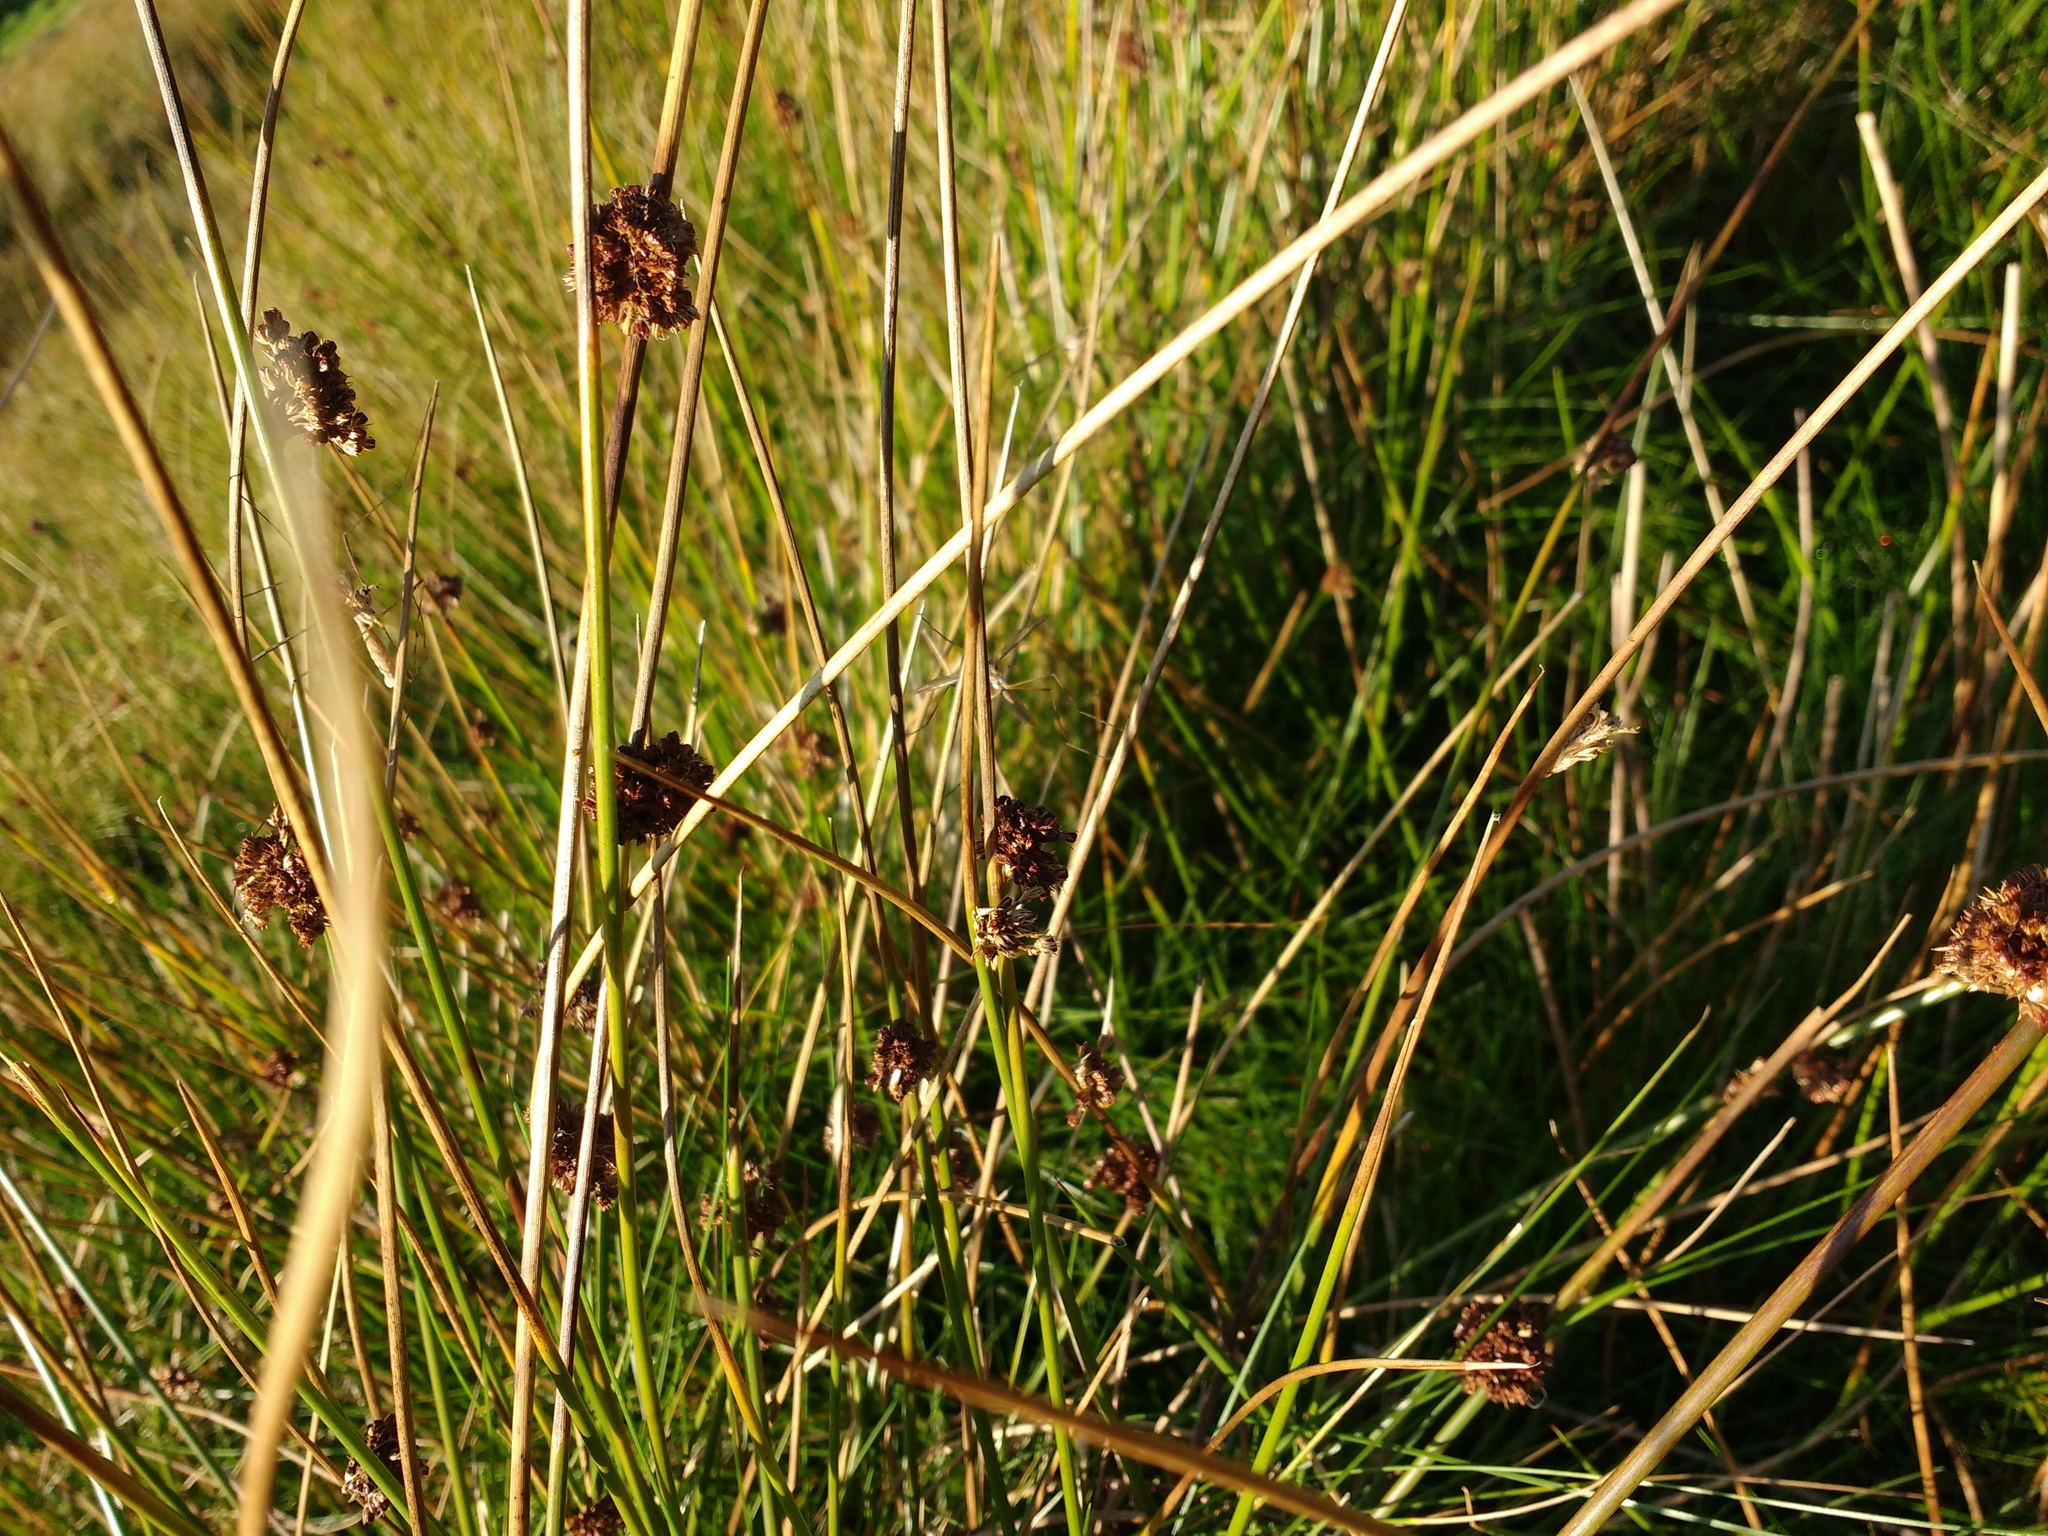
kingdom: Plantae
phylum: Tracheophyta
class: Liliopsida
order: Poales
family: Juncaceae
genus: Juncus
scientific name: Juncus conglomeratus
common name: Compact rush
